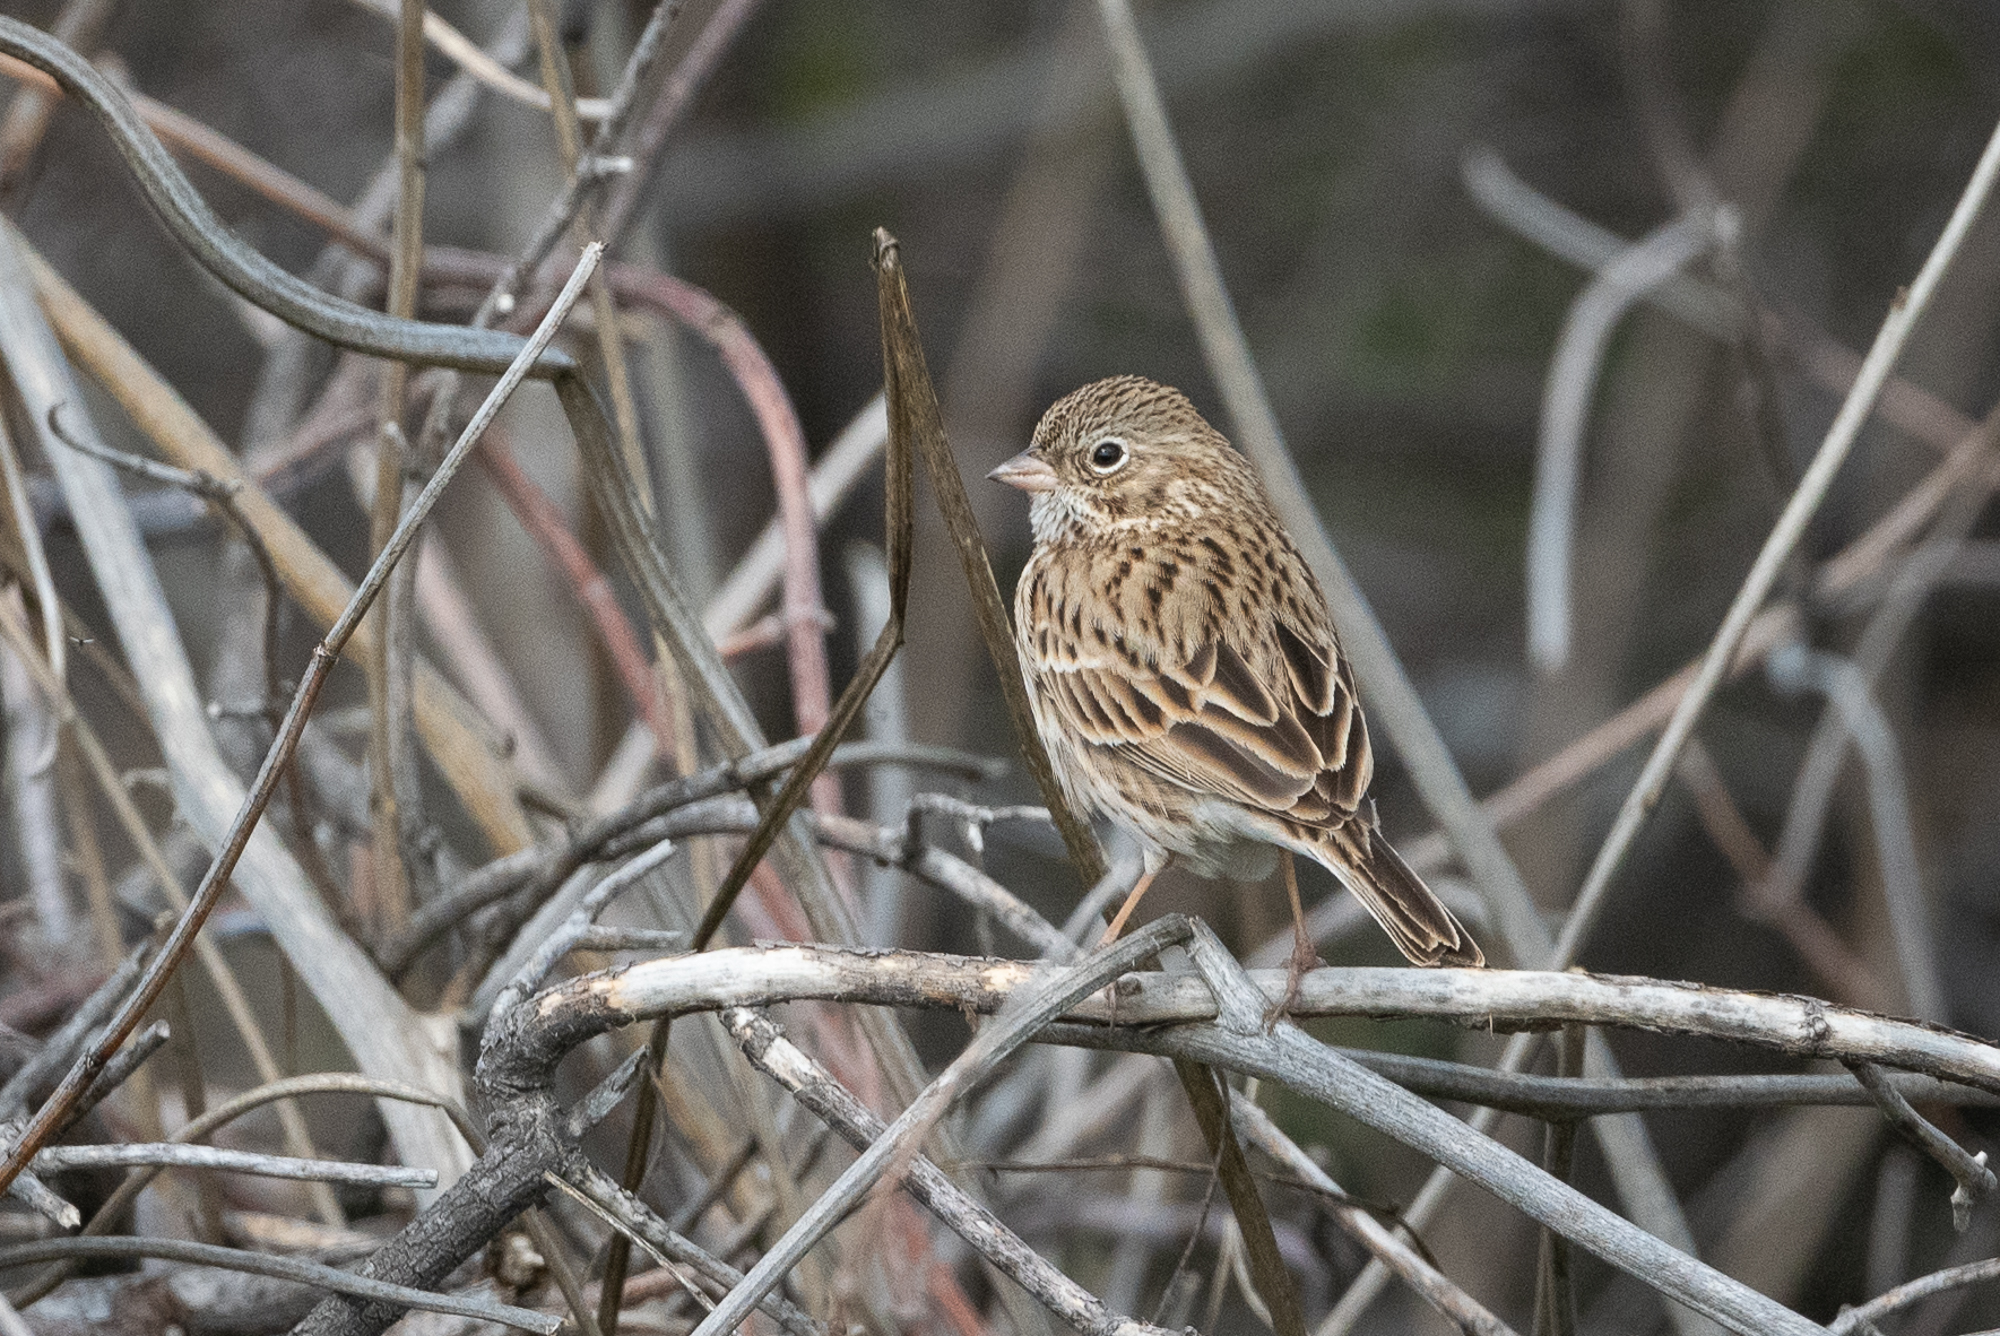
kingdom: Animalia
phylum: Chordata
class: Aves
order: Passeriformes
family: Passerellidae
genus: Pooecetes
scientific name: Pooecetes gramineus
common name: Vesper sparrow
